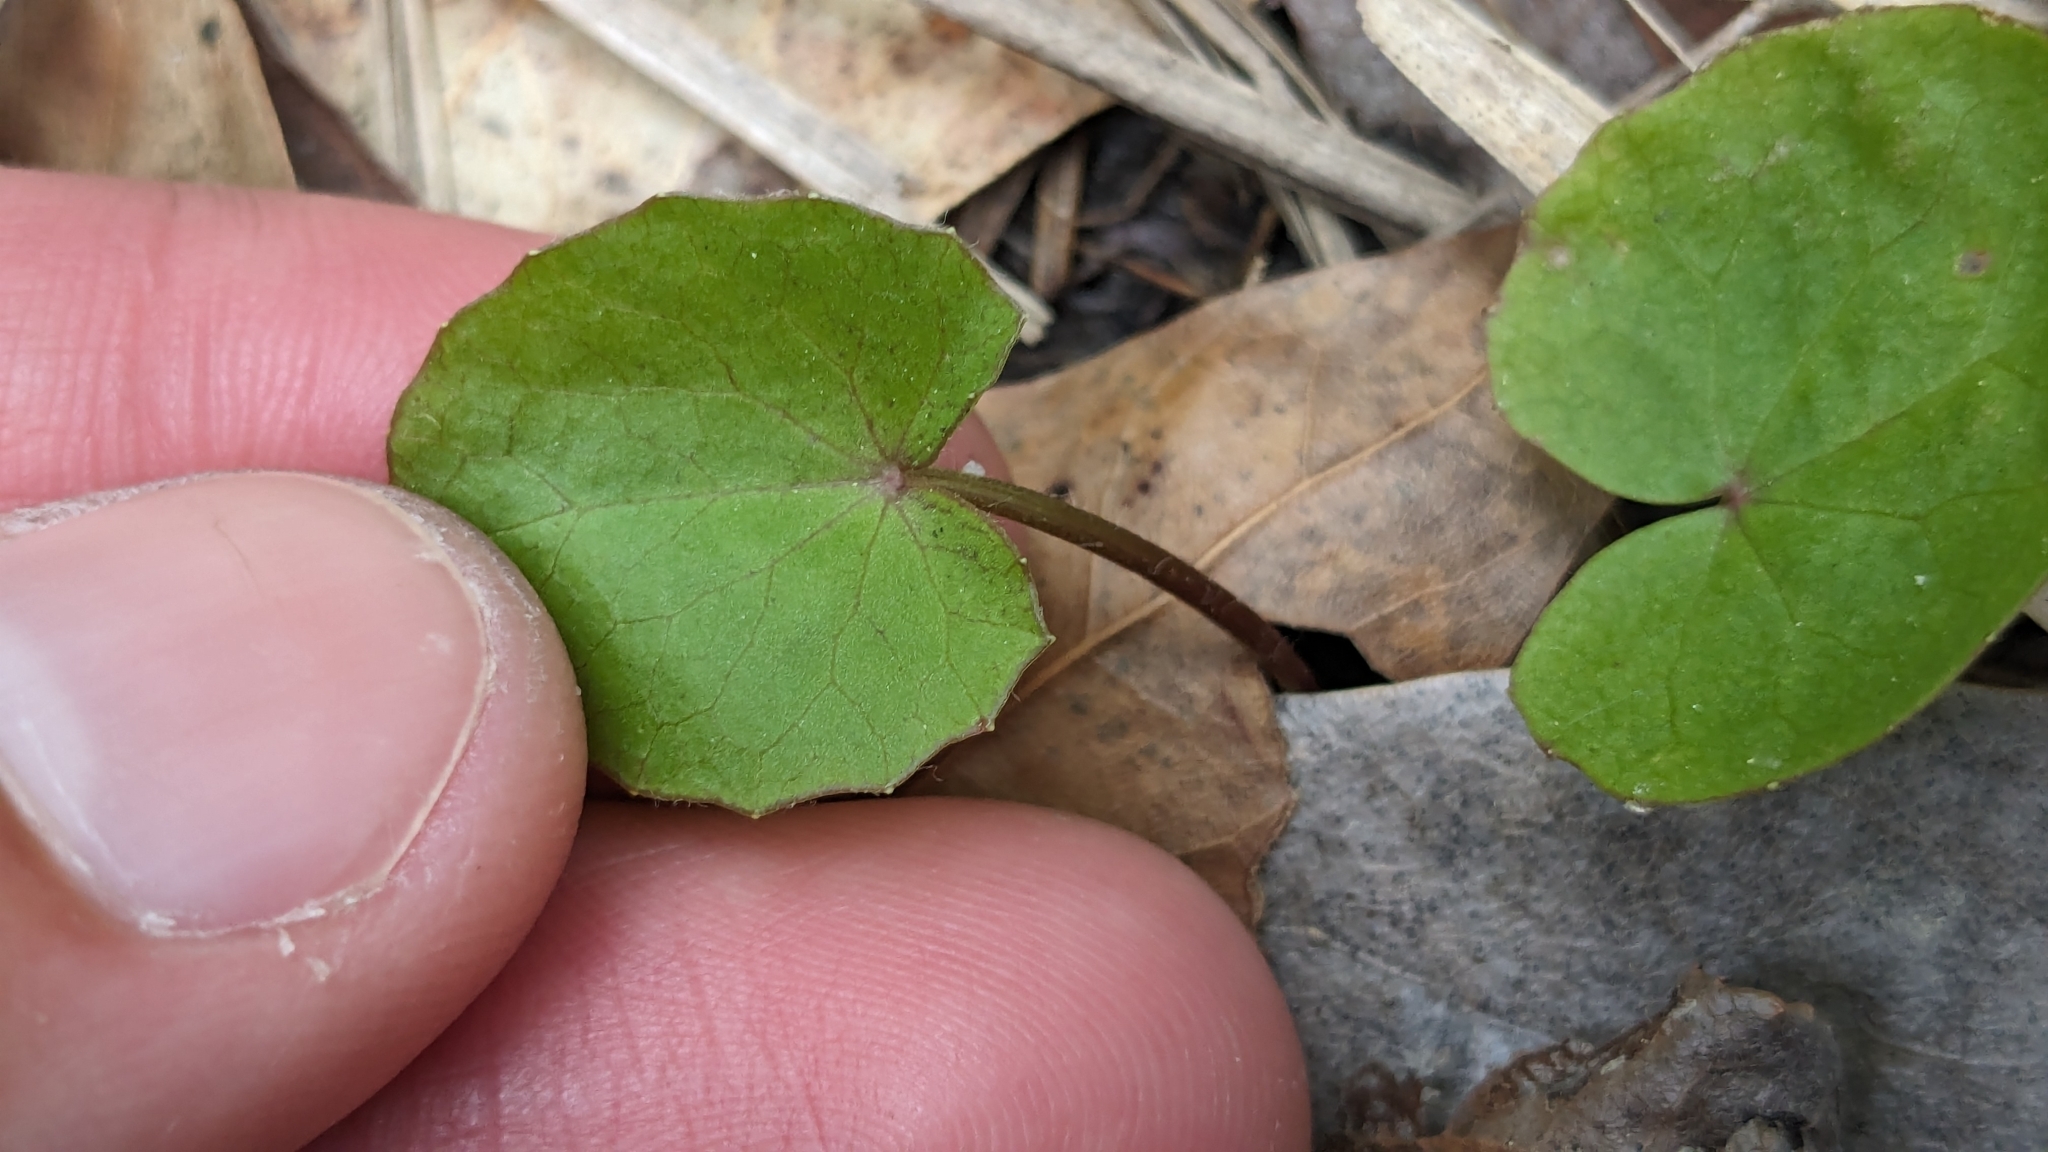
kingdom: Plantae
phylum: Tracheophyta
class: Magnoliopsida
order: Apiales
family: Apiaceae
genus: Centella
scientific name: Centella erecta
